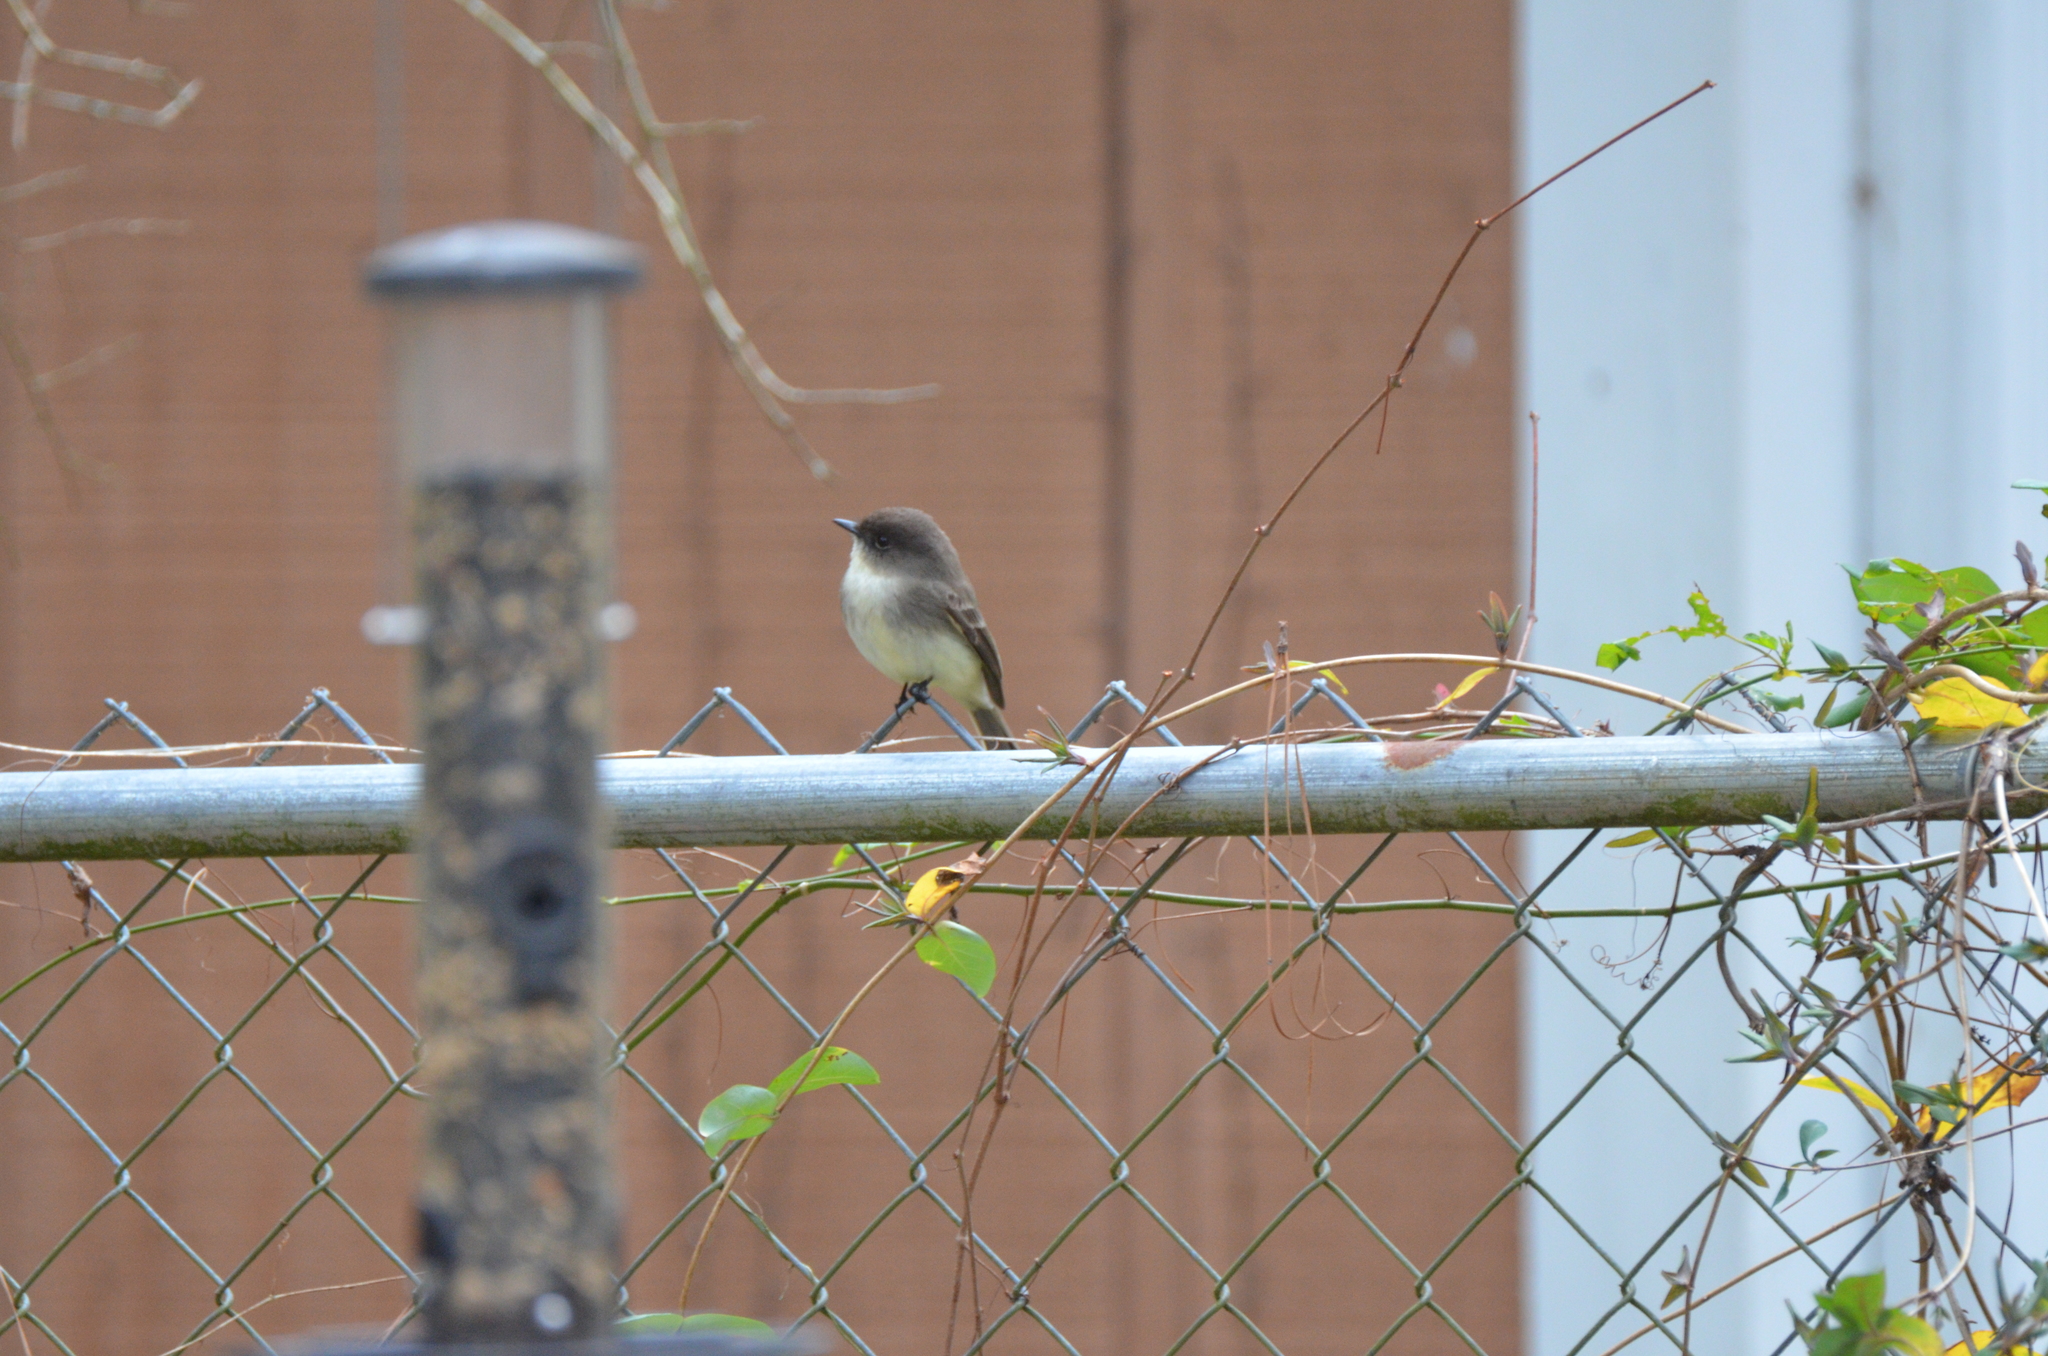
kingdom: Animalia
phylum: Chordata
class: Aves
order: Passeriformes
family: Tyrannidae
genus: Sayornis
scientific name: Sayornis phoebe
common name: Eastern phoebe
